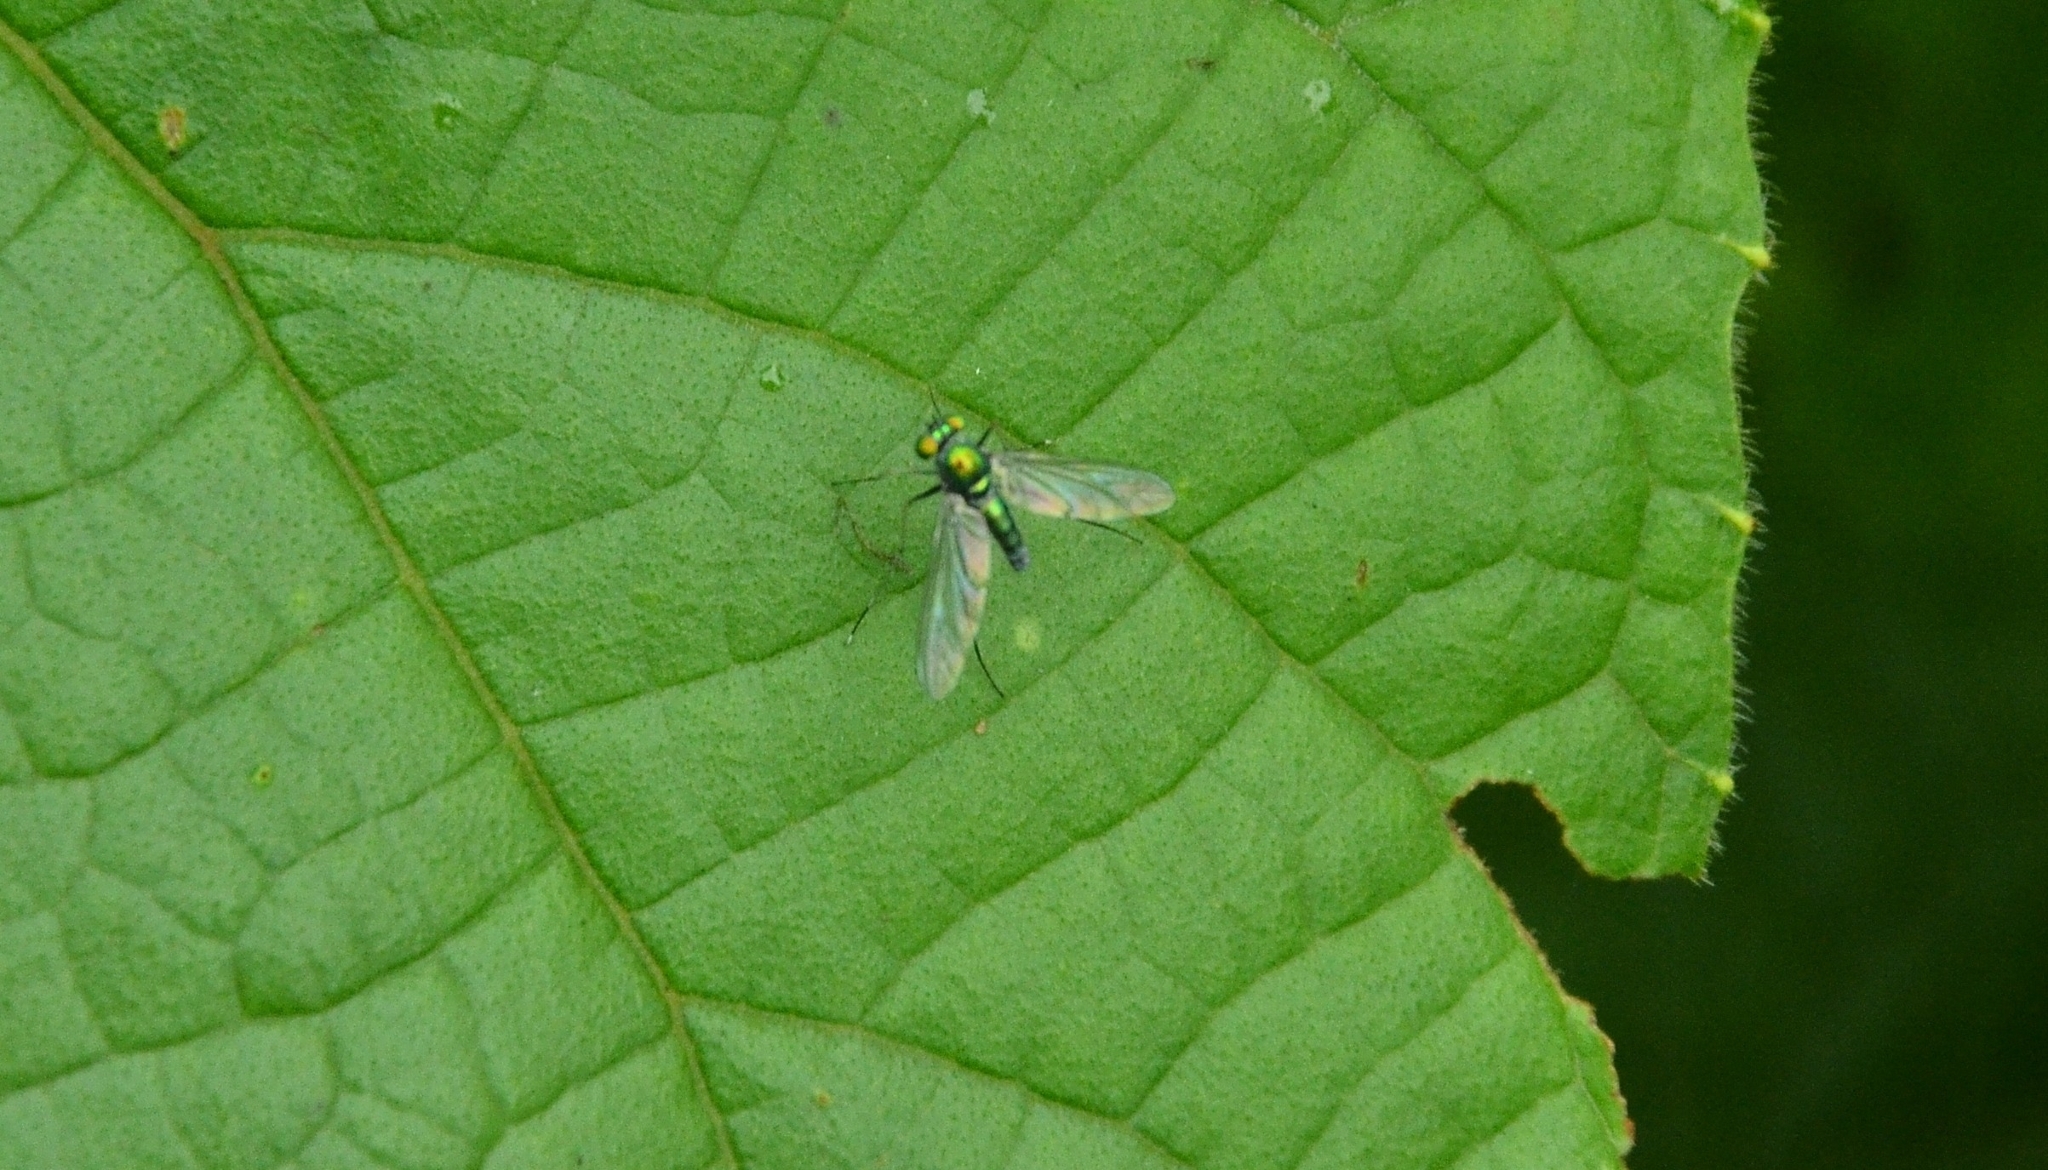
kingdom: Animalia
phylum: Arthropoda
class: Insecta
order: Diptera
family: Dolichopodidae
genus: Chrysosoma
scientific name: Chrysosoma leucopogon
